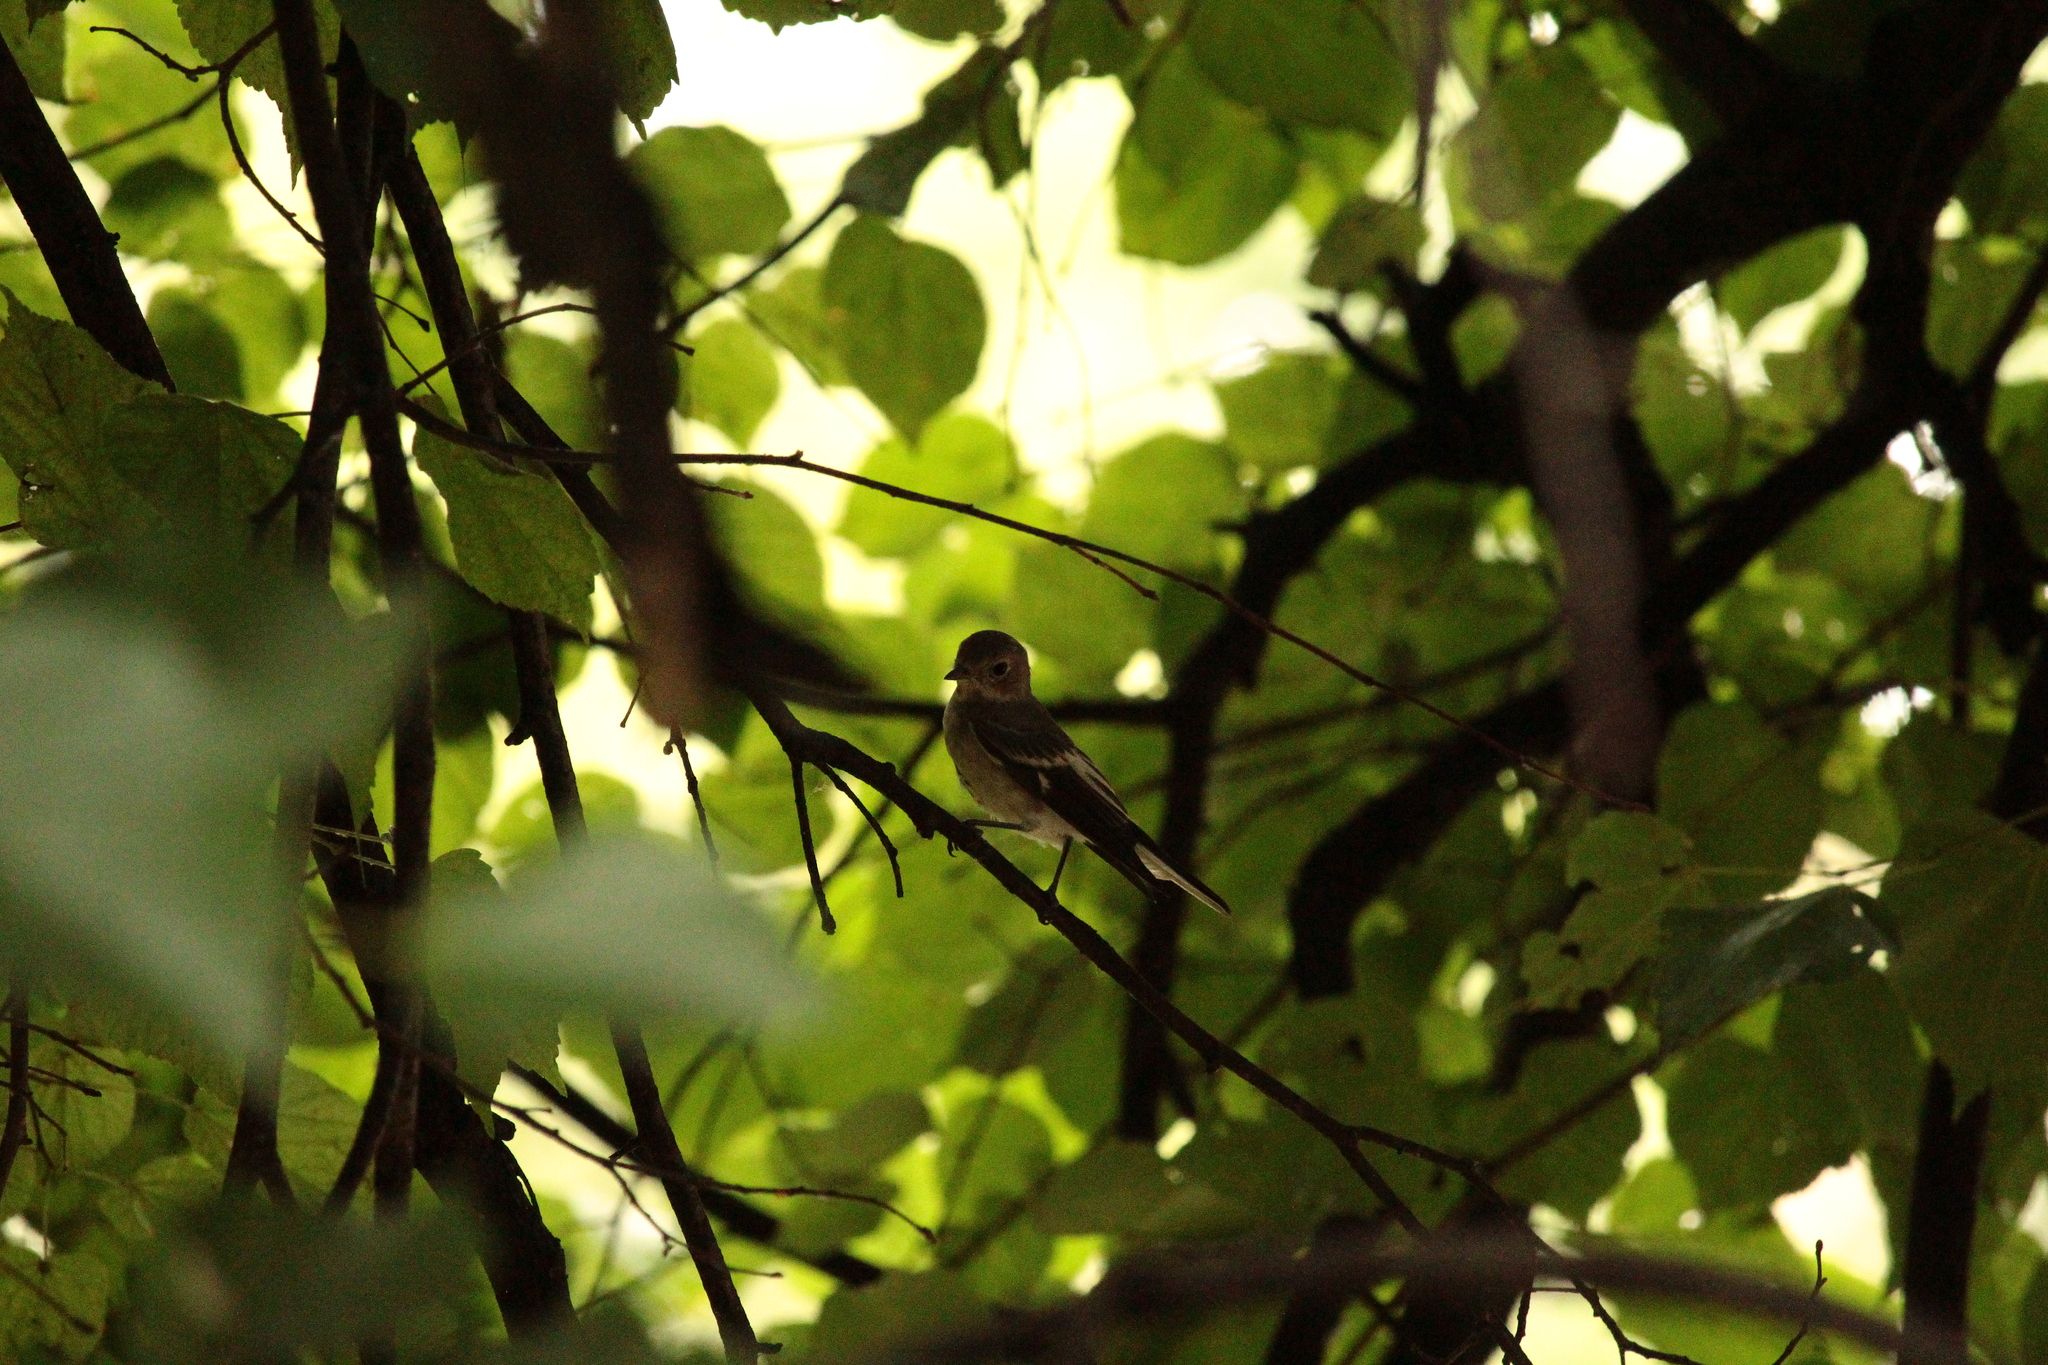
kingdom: Animalia
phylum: Chordata
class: Aves
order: Passeriformes
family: Muscicapidae
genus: Ficedula
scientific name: Ficedula hypoleuca
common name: European pied flycatcher
